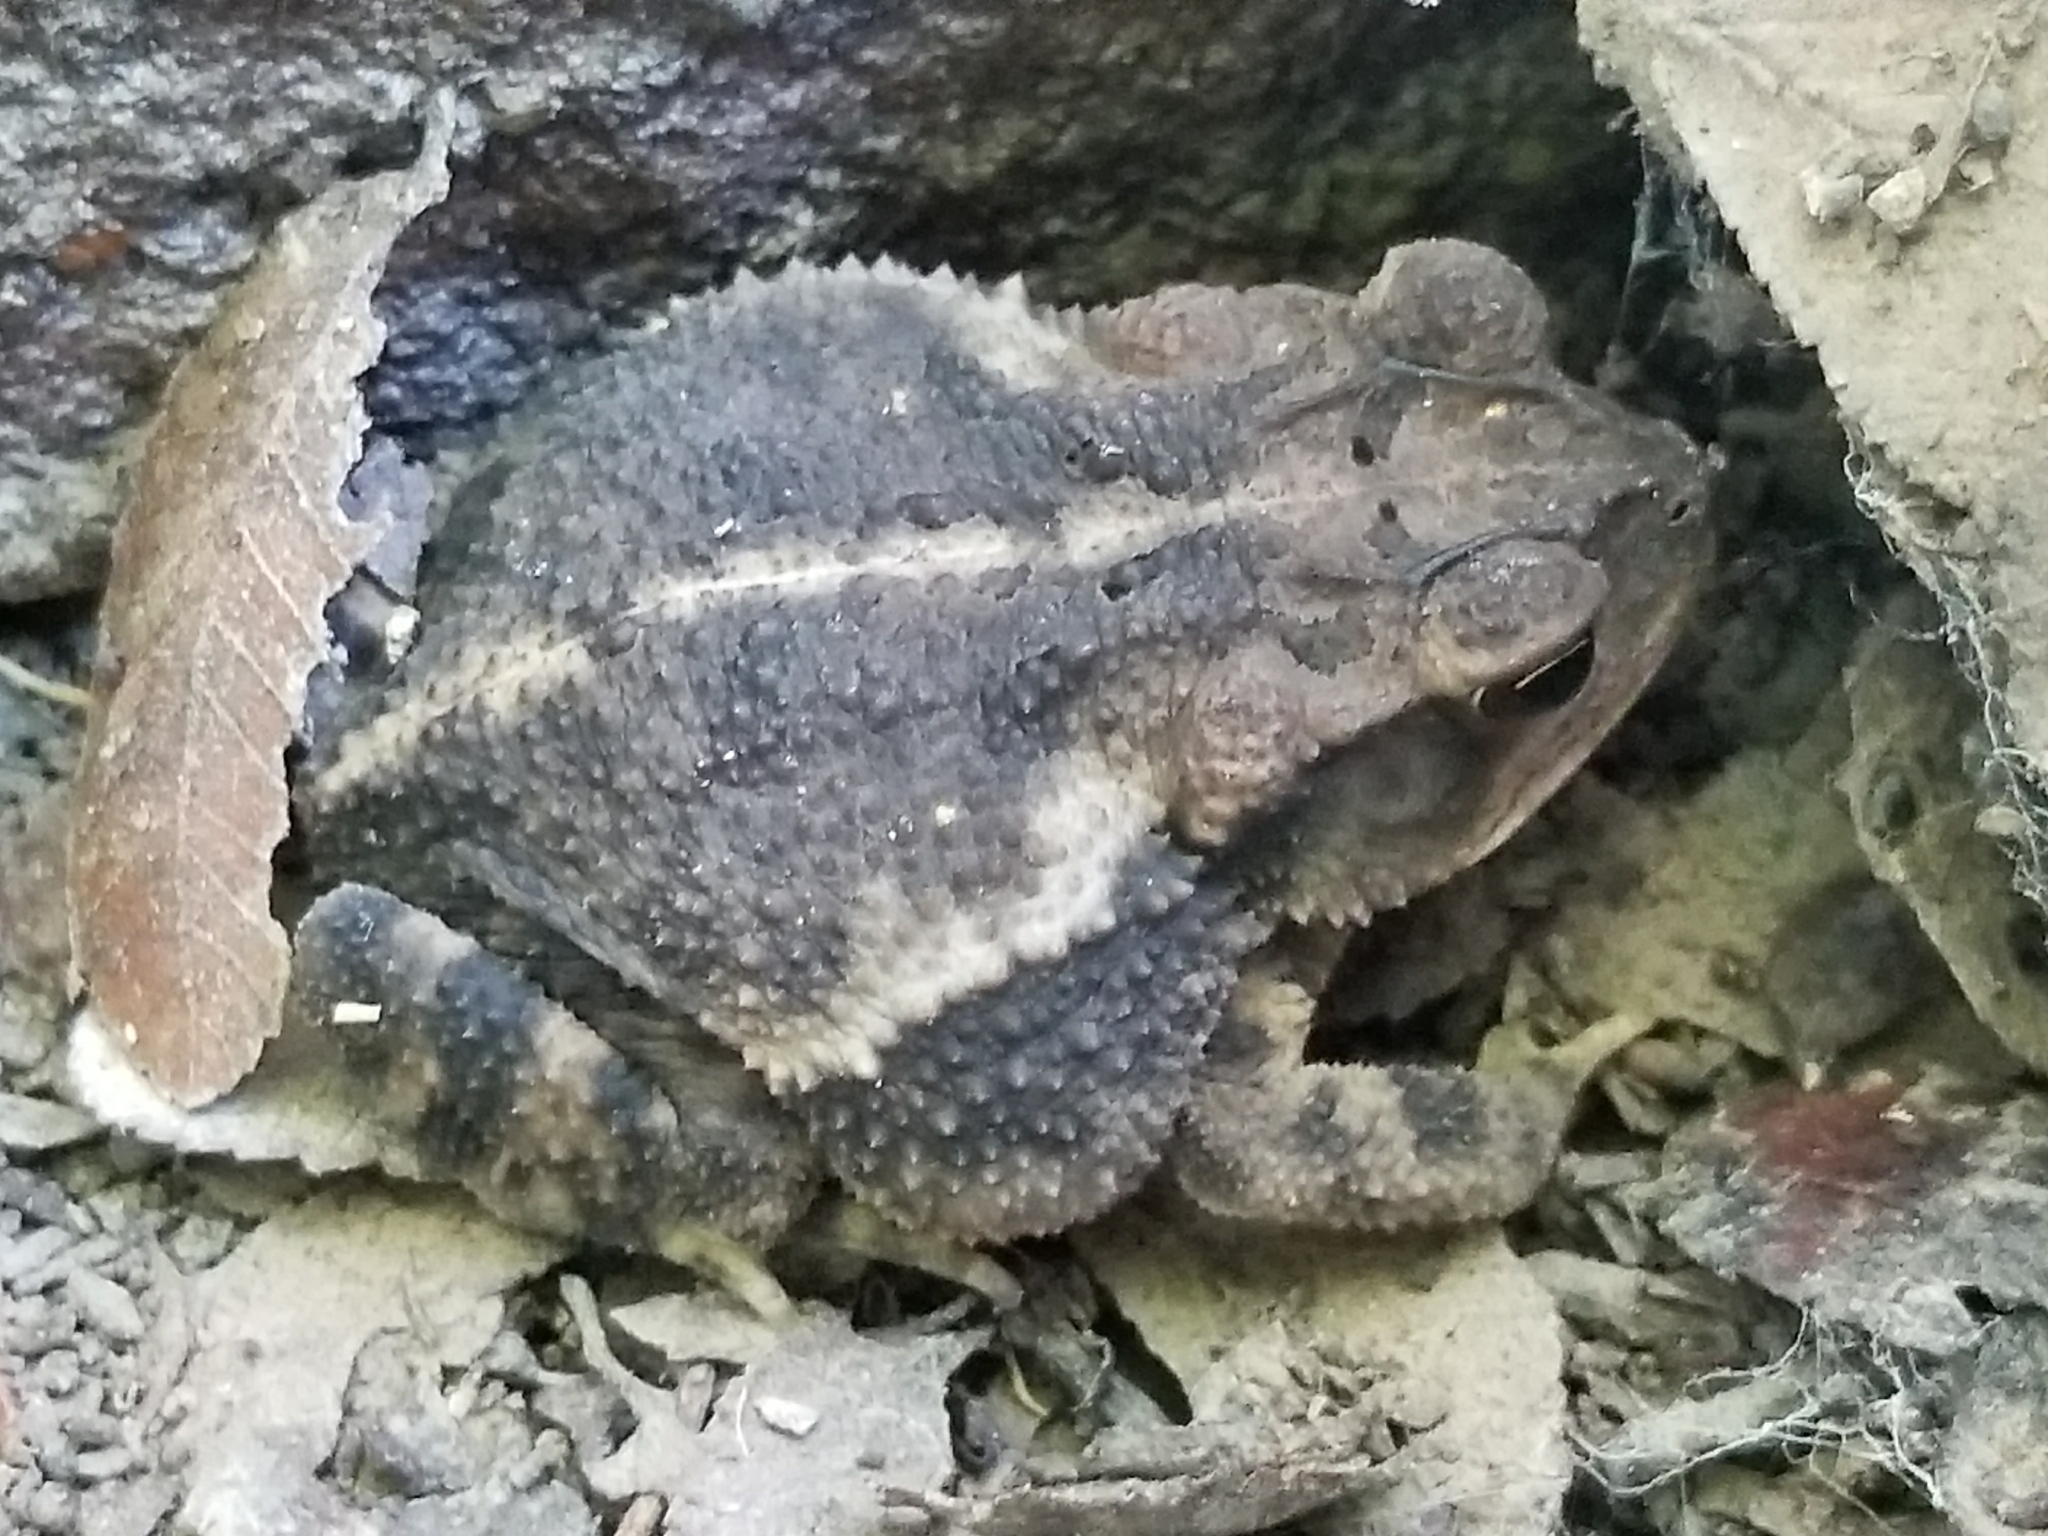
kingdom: Animalia
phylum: Chordata
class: Amphibia
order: Anura
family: Bufonidae
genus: Incilius
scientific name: Incilius nebulifer
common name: Gulf coast toad
